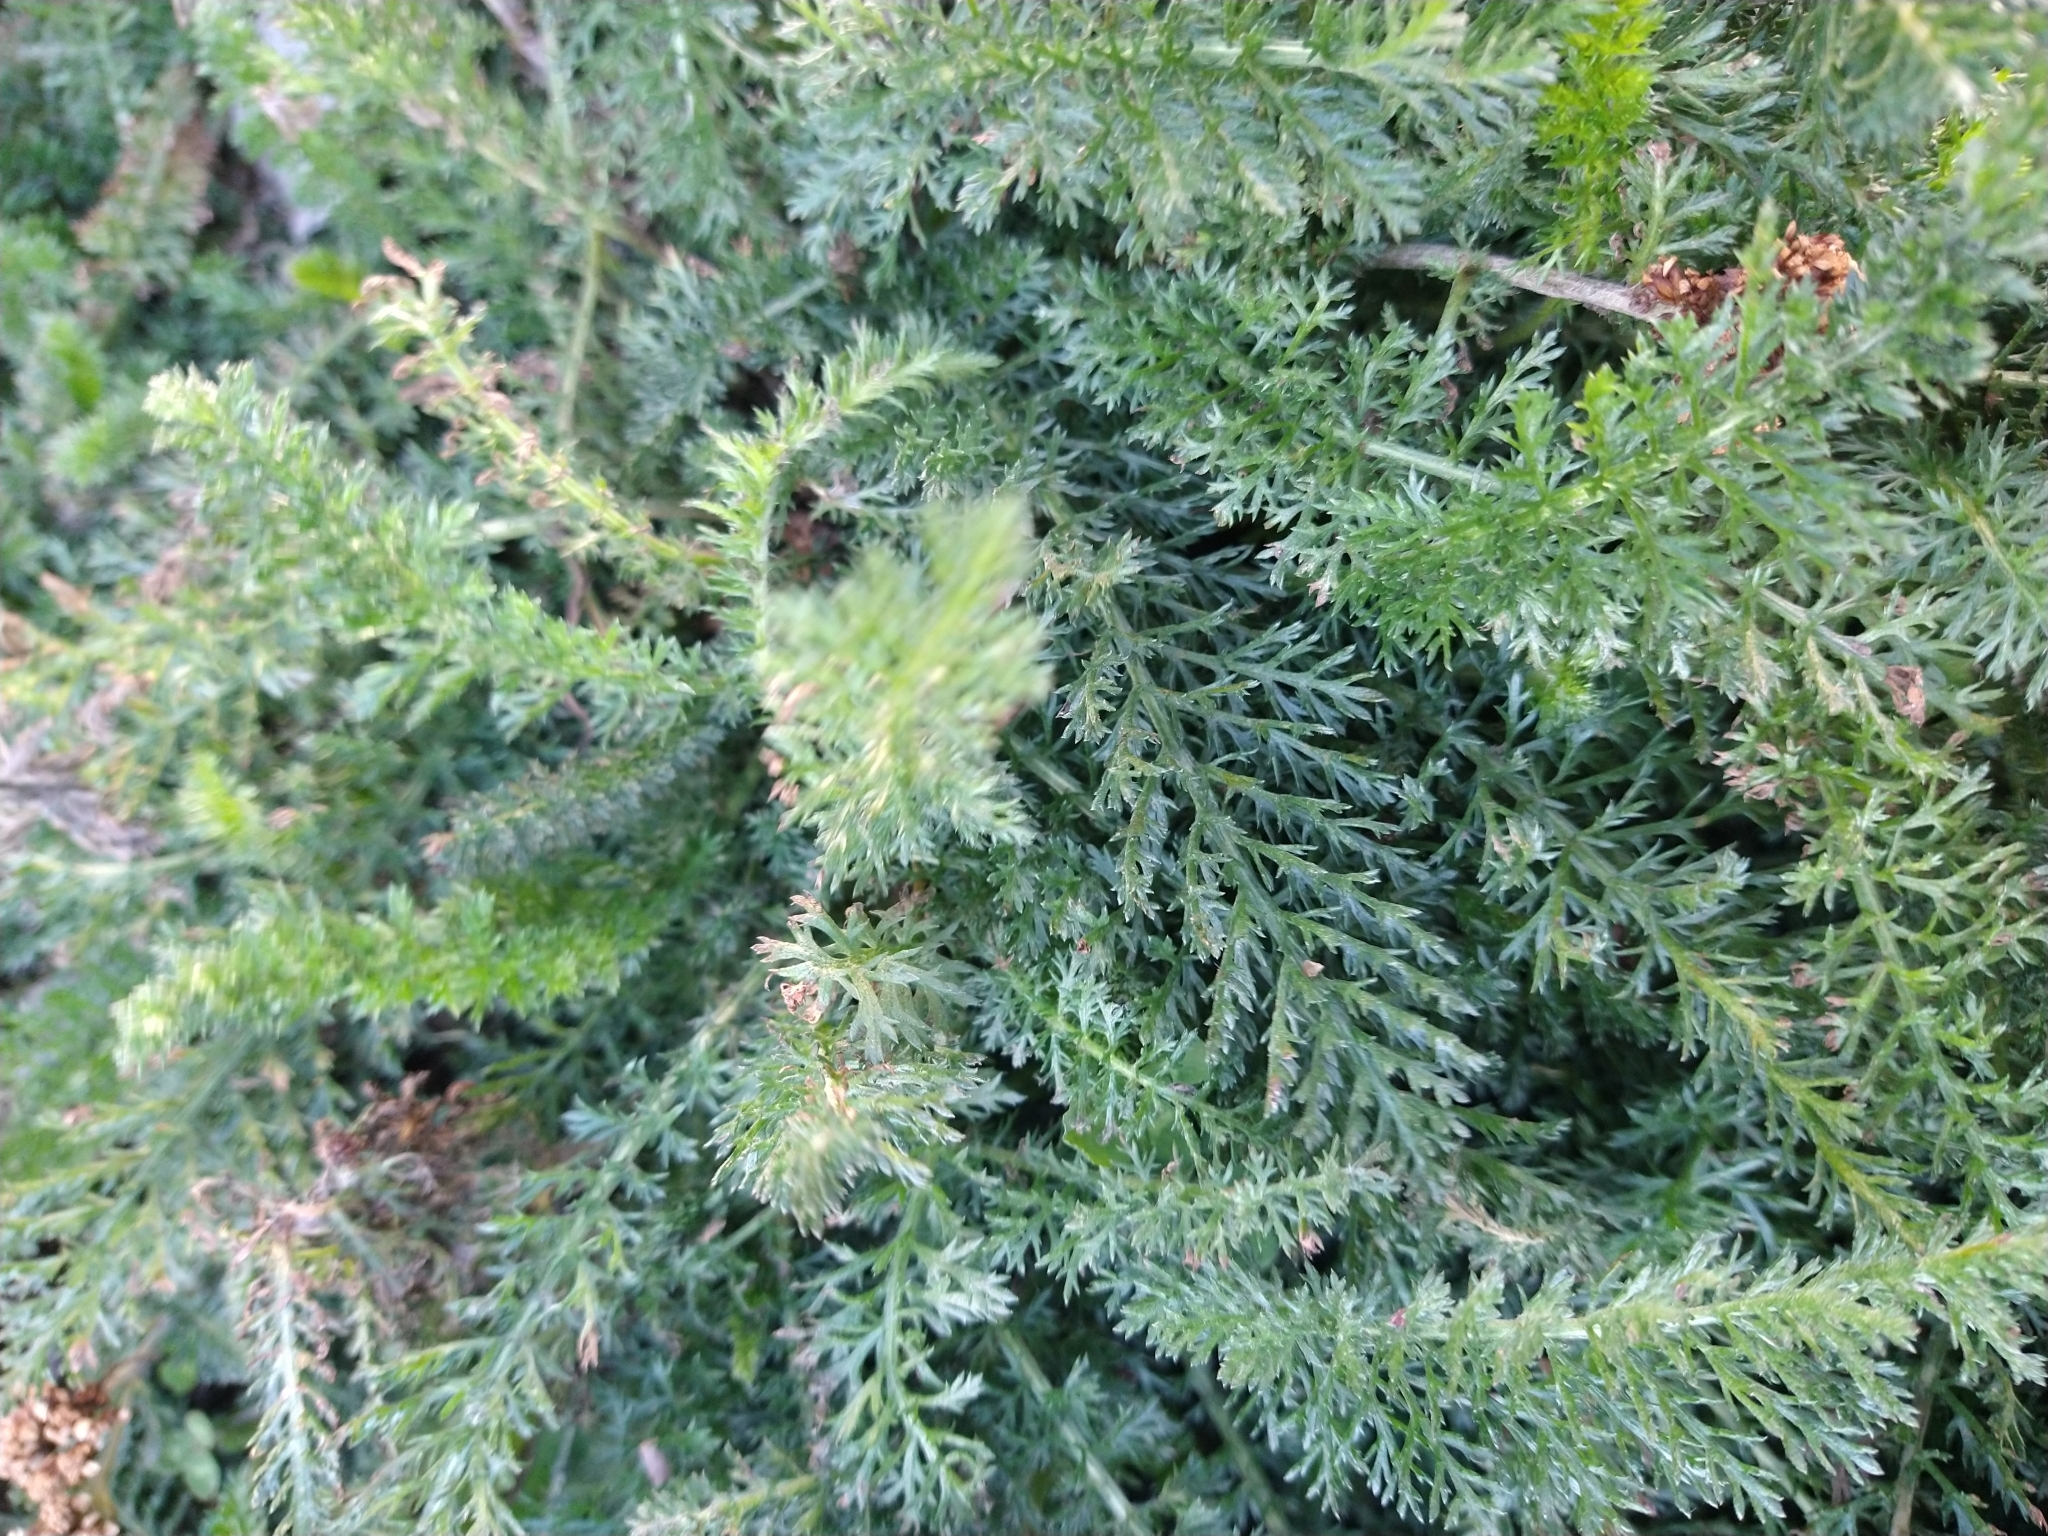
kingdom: Plantae
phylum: Tracheophyta
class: Magnoliopsida
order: Asterales
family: Asteraceae
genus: Achillea
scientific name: Achillea millefolium
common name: Yarrow
